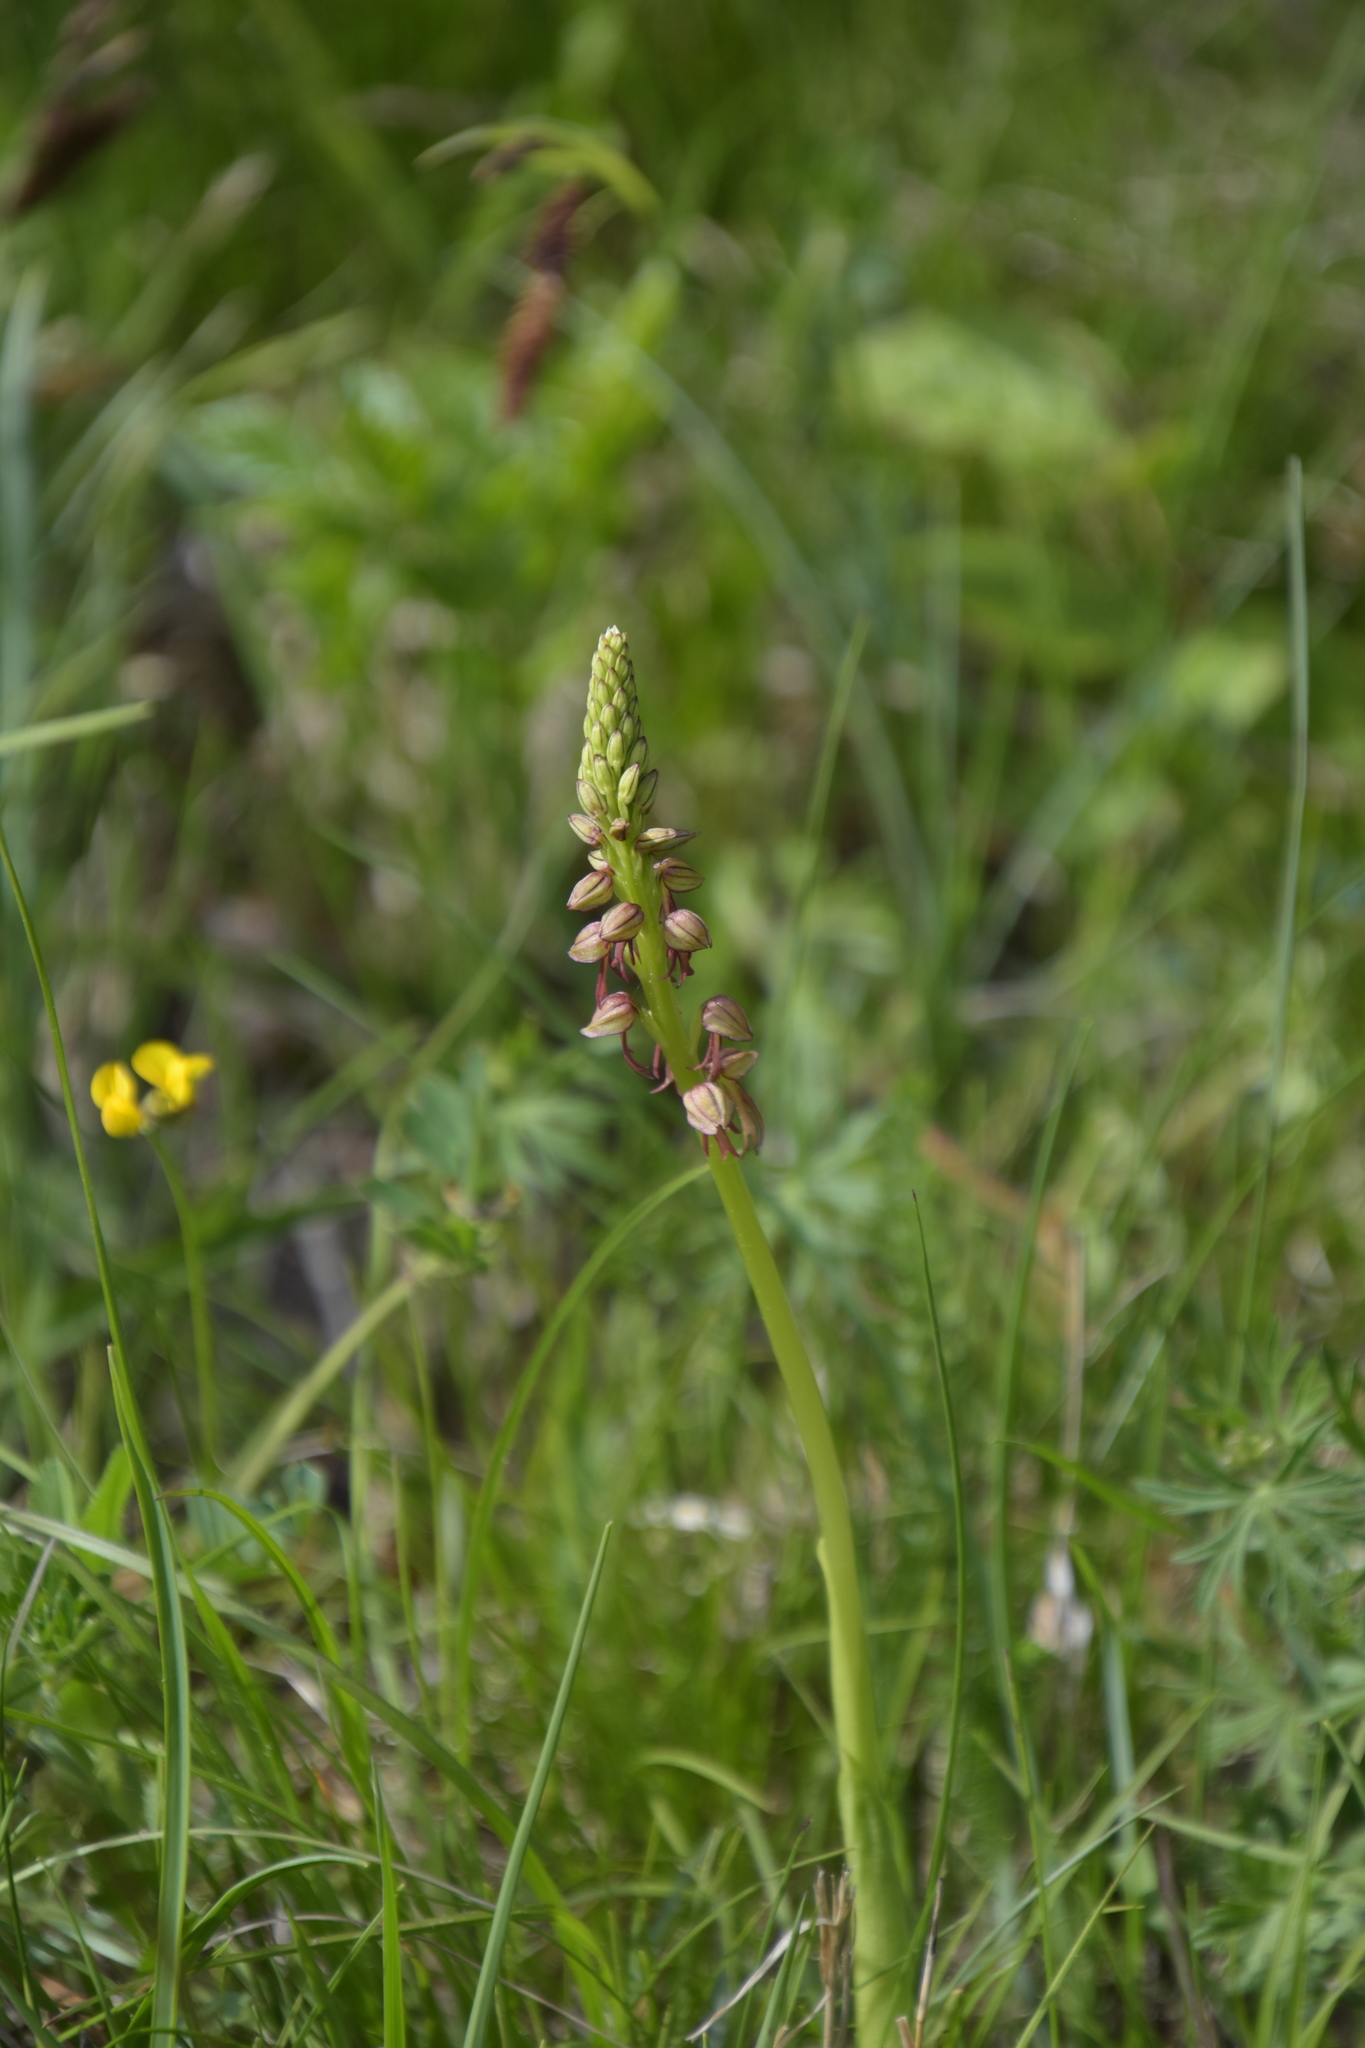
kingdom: Plantae
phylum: Tracheophyta
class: Liliopsida
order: Asparagales
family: Orchidaceae
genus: Orchis
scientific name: Orchis anthropophora
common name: Man orchid
